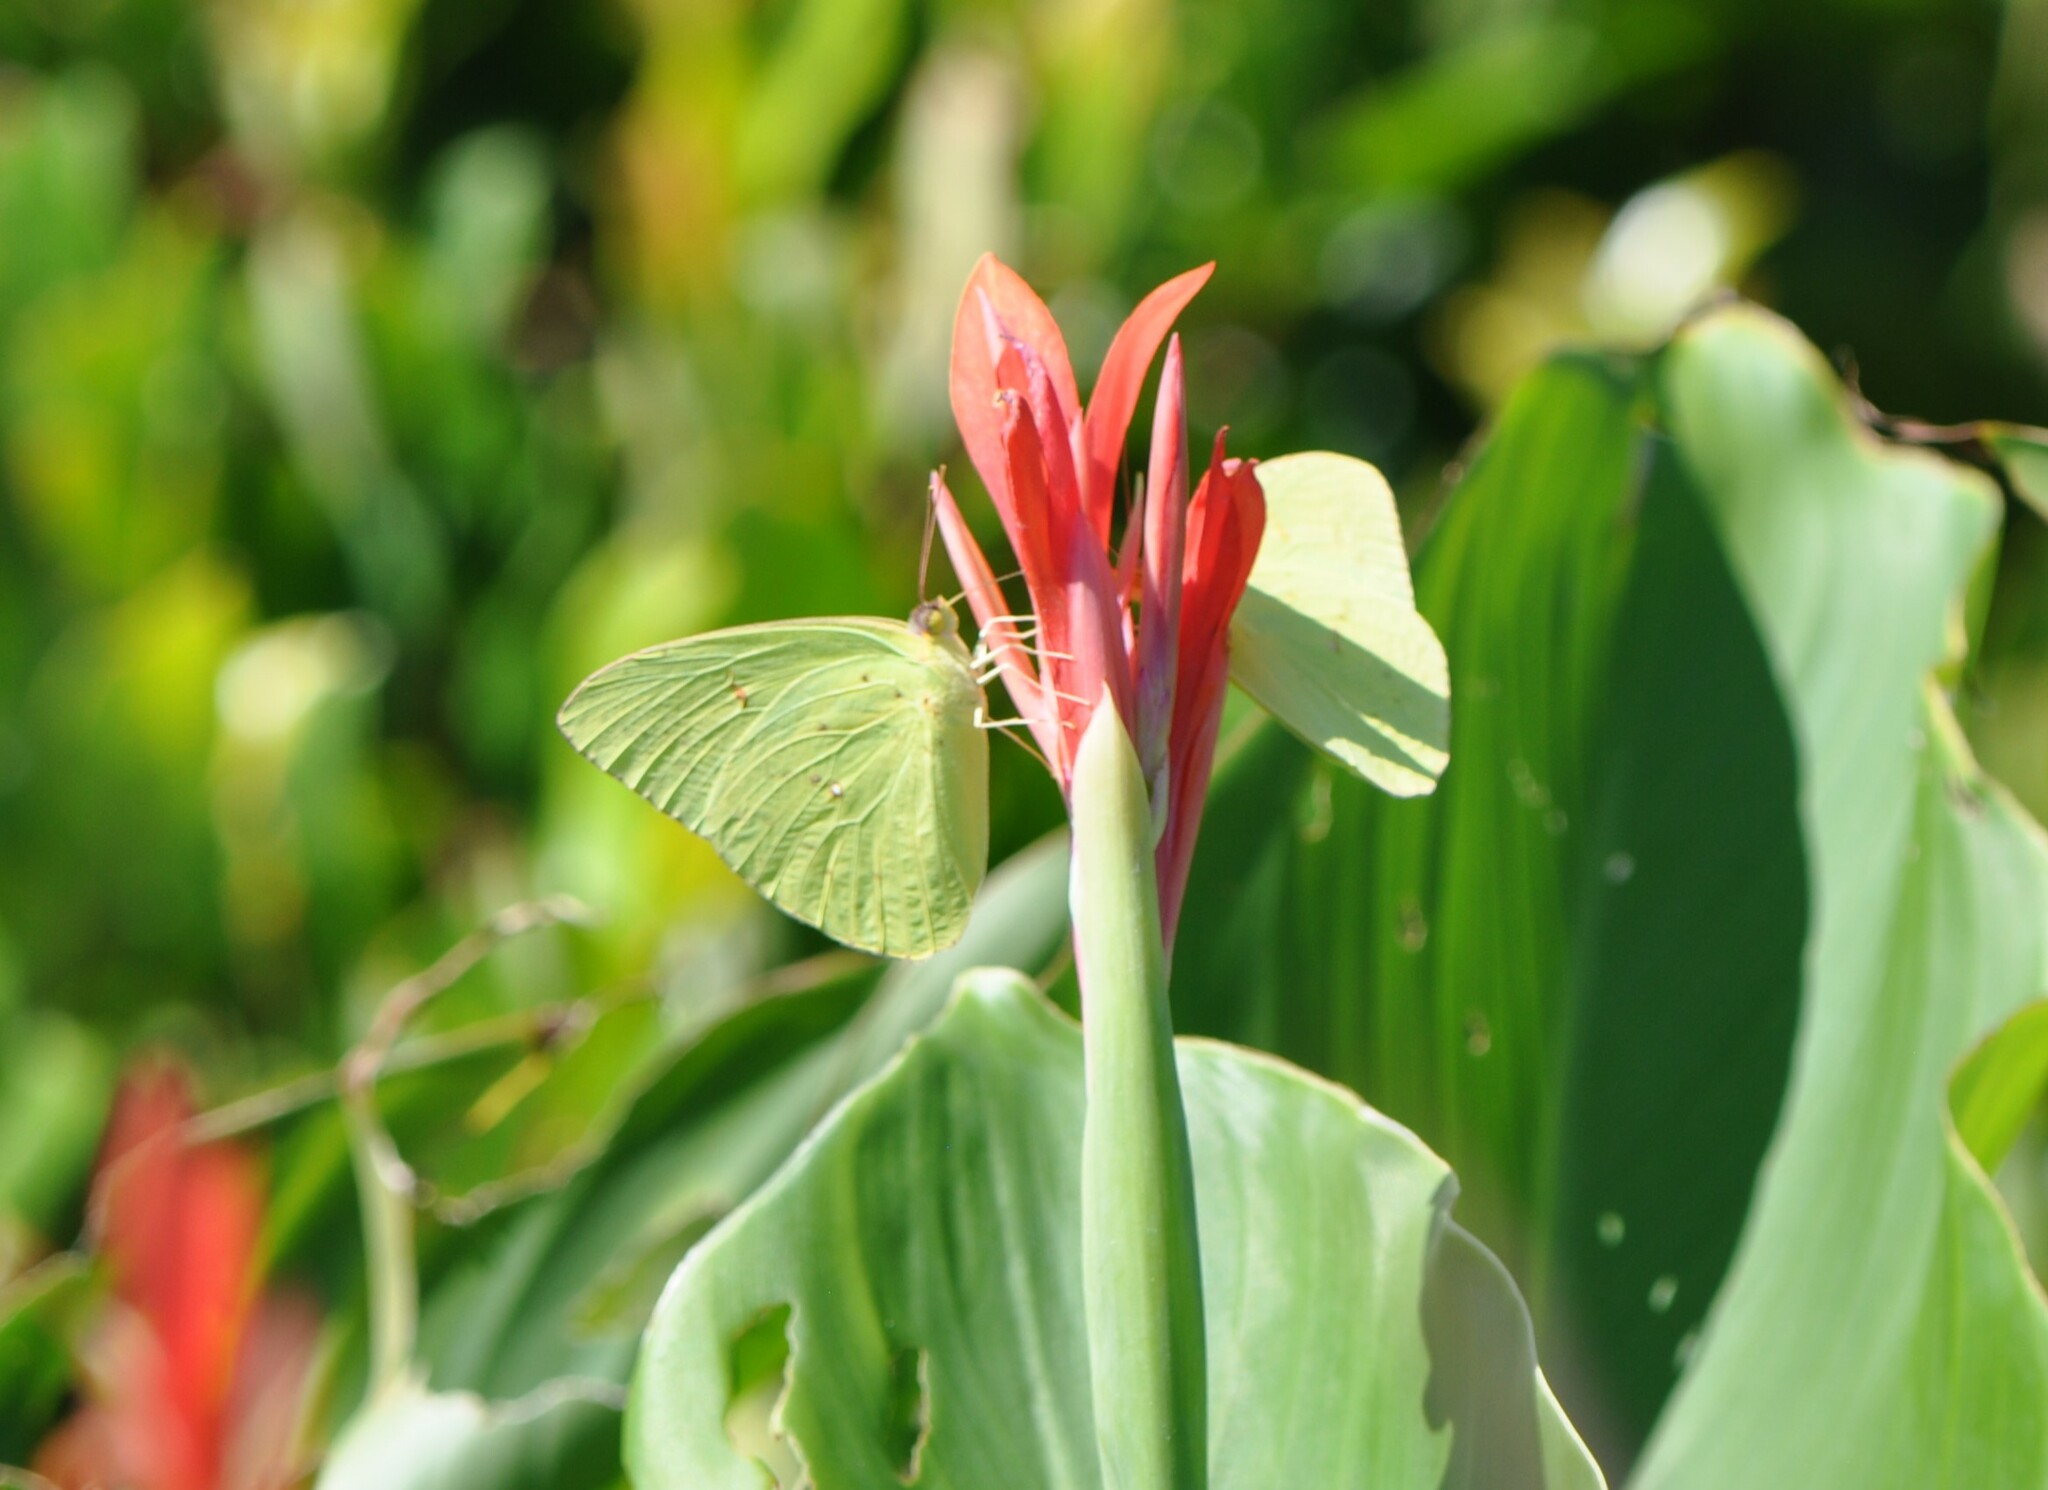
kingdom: Animalia
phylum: Arthropoda
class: Insecta
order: Lepidoptera
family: Pieridae
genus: Phoebis
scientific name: Phoebis sennae
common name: Cloudless sulphur
